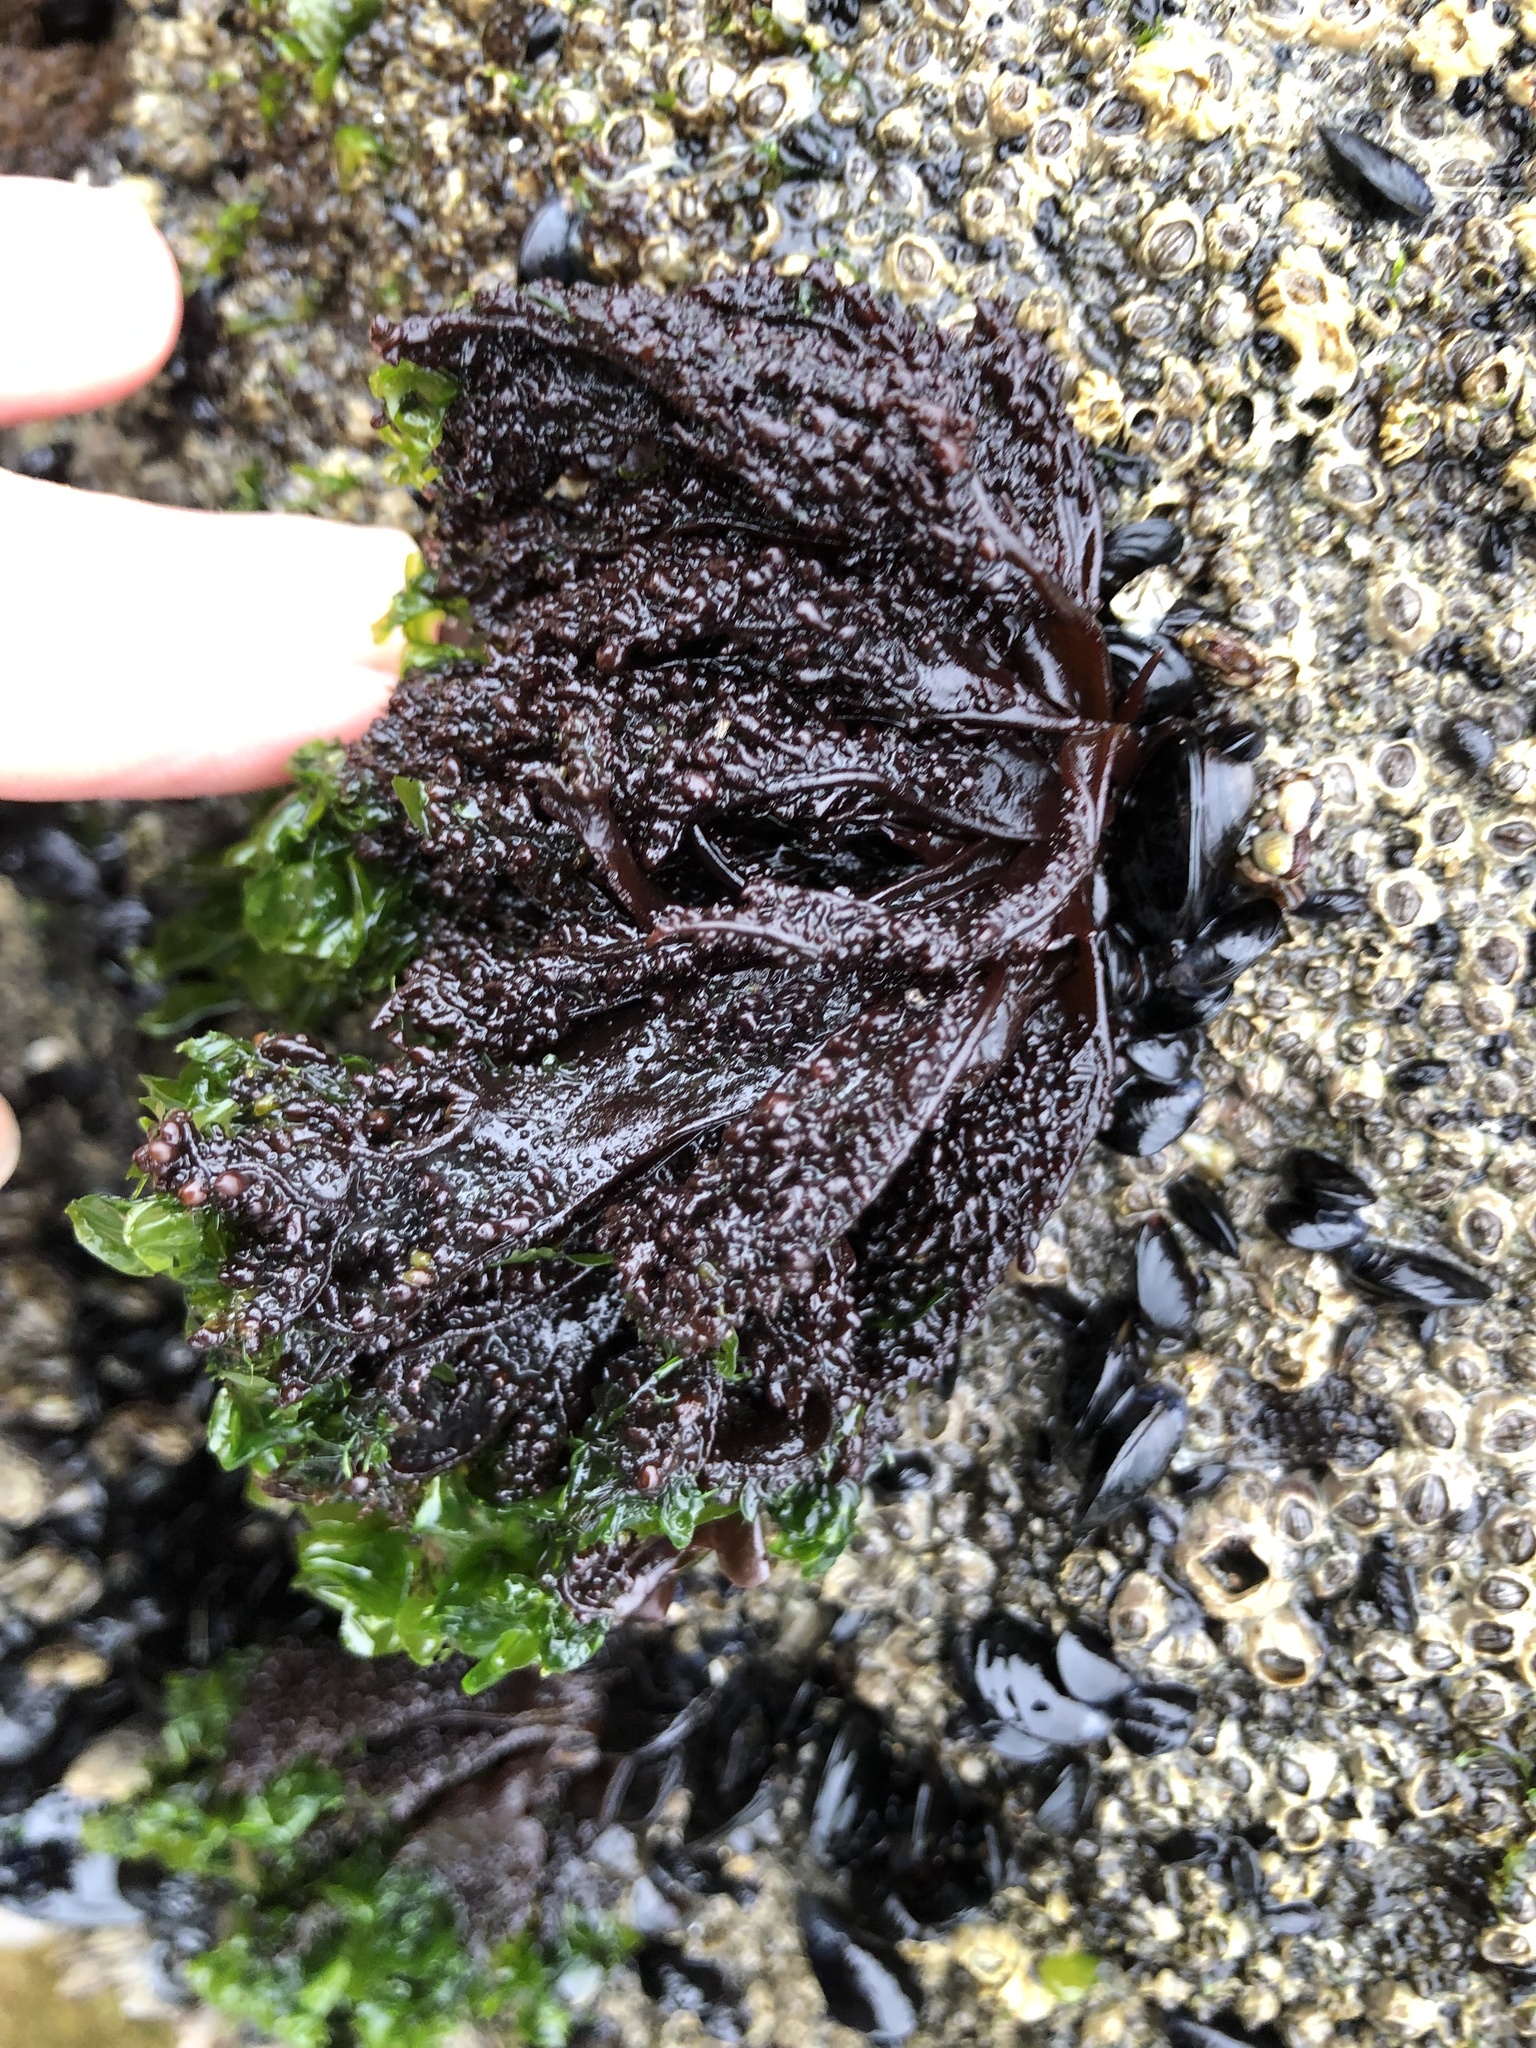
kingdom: Plantae
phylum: Rhodophyta
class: Florideophyceae
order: Gigartinales
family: Phyllophoraceae
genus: Mastocarpus
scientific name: Mastocarpus papillatus
